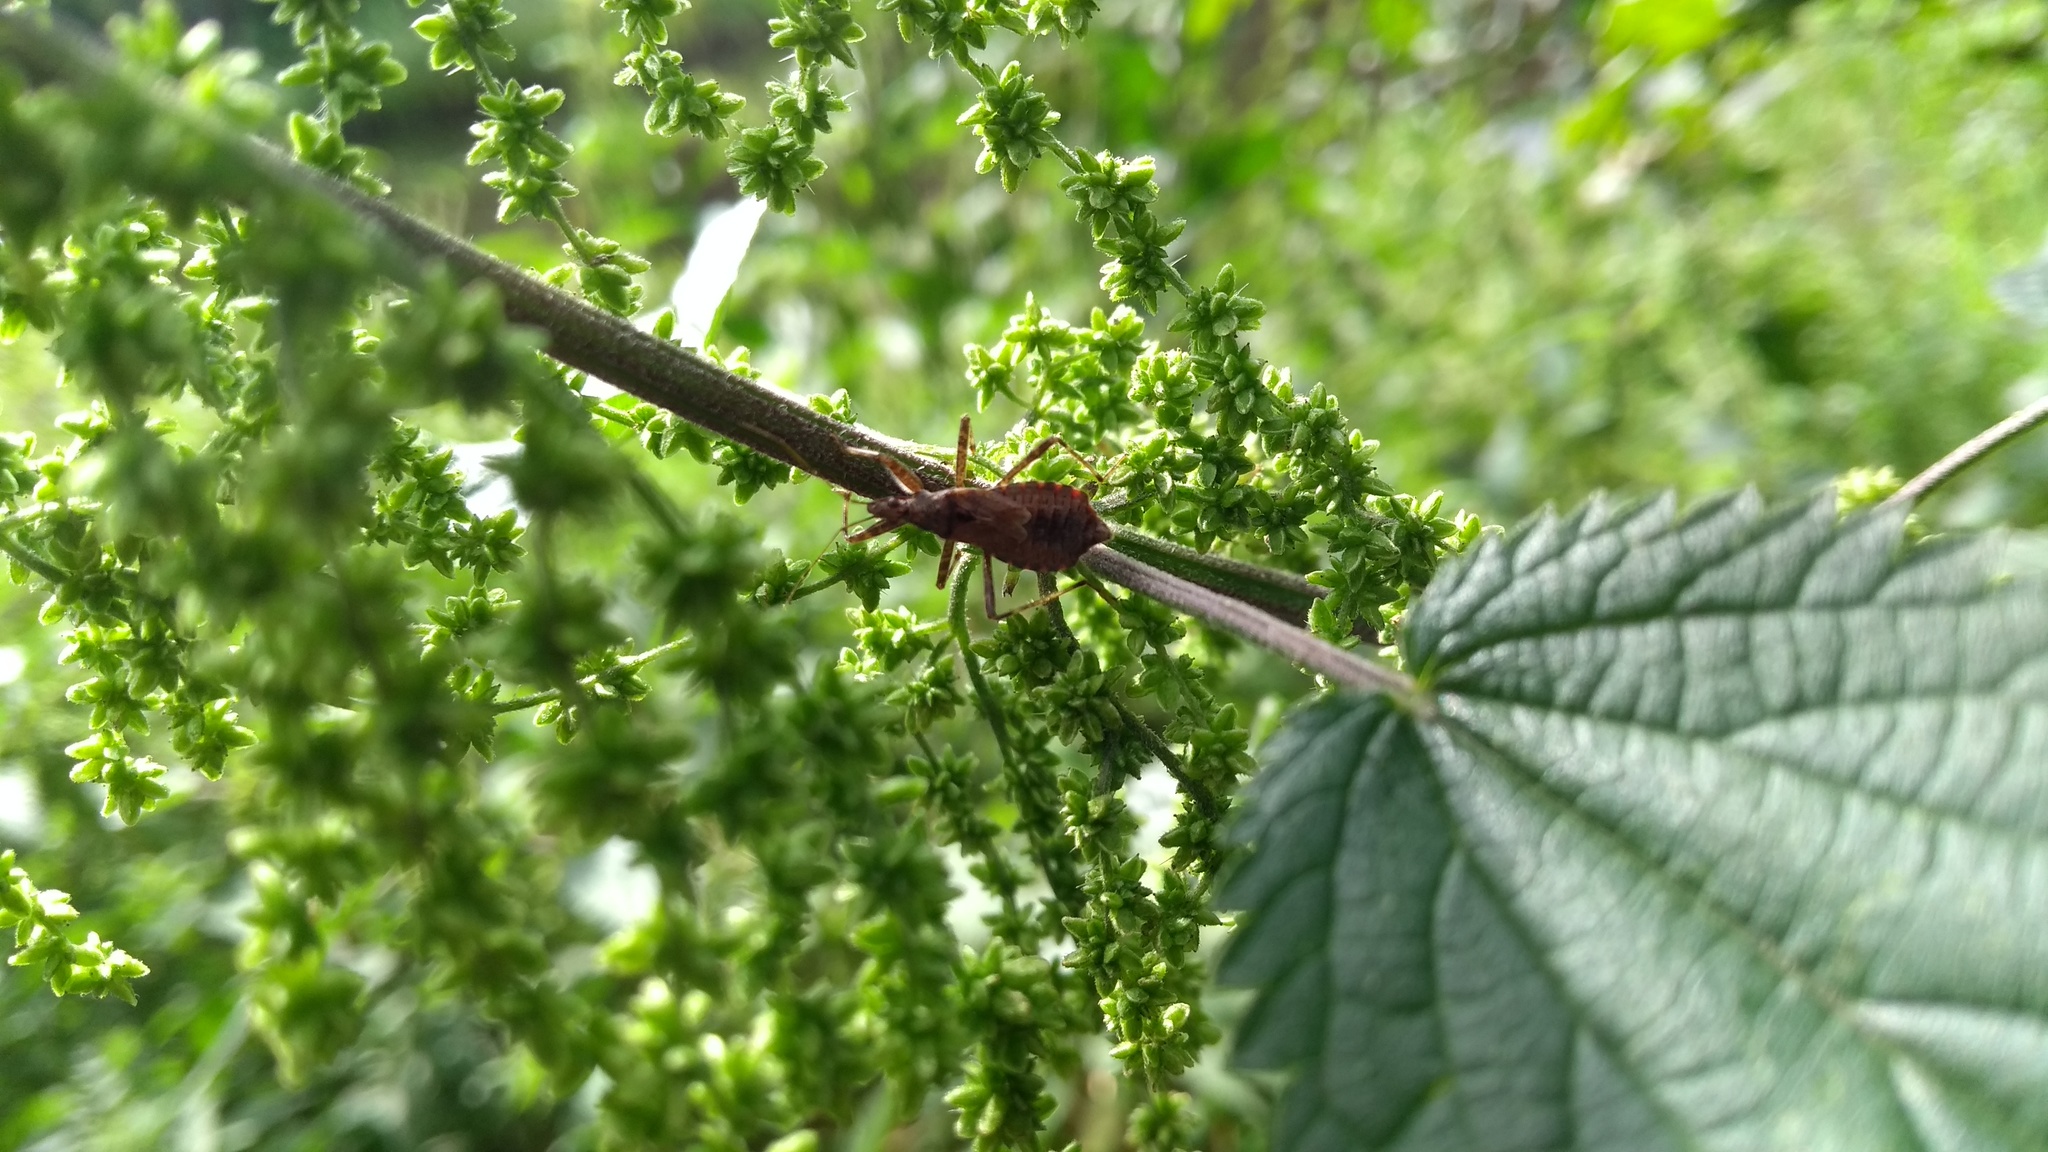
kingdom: Animalia
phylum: Arthropoda
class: Insecta
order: Hemiptera
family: Nabidae
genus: Himacerus
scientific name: Himacerus apterus
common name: Tree damsel bug
